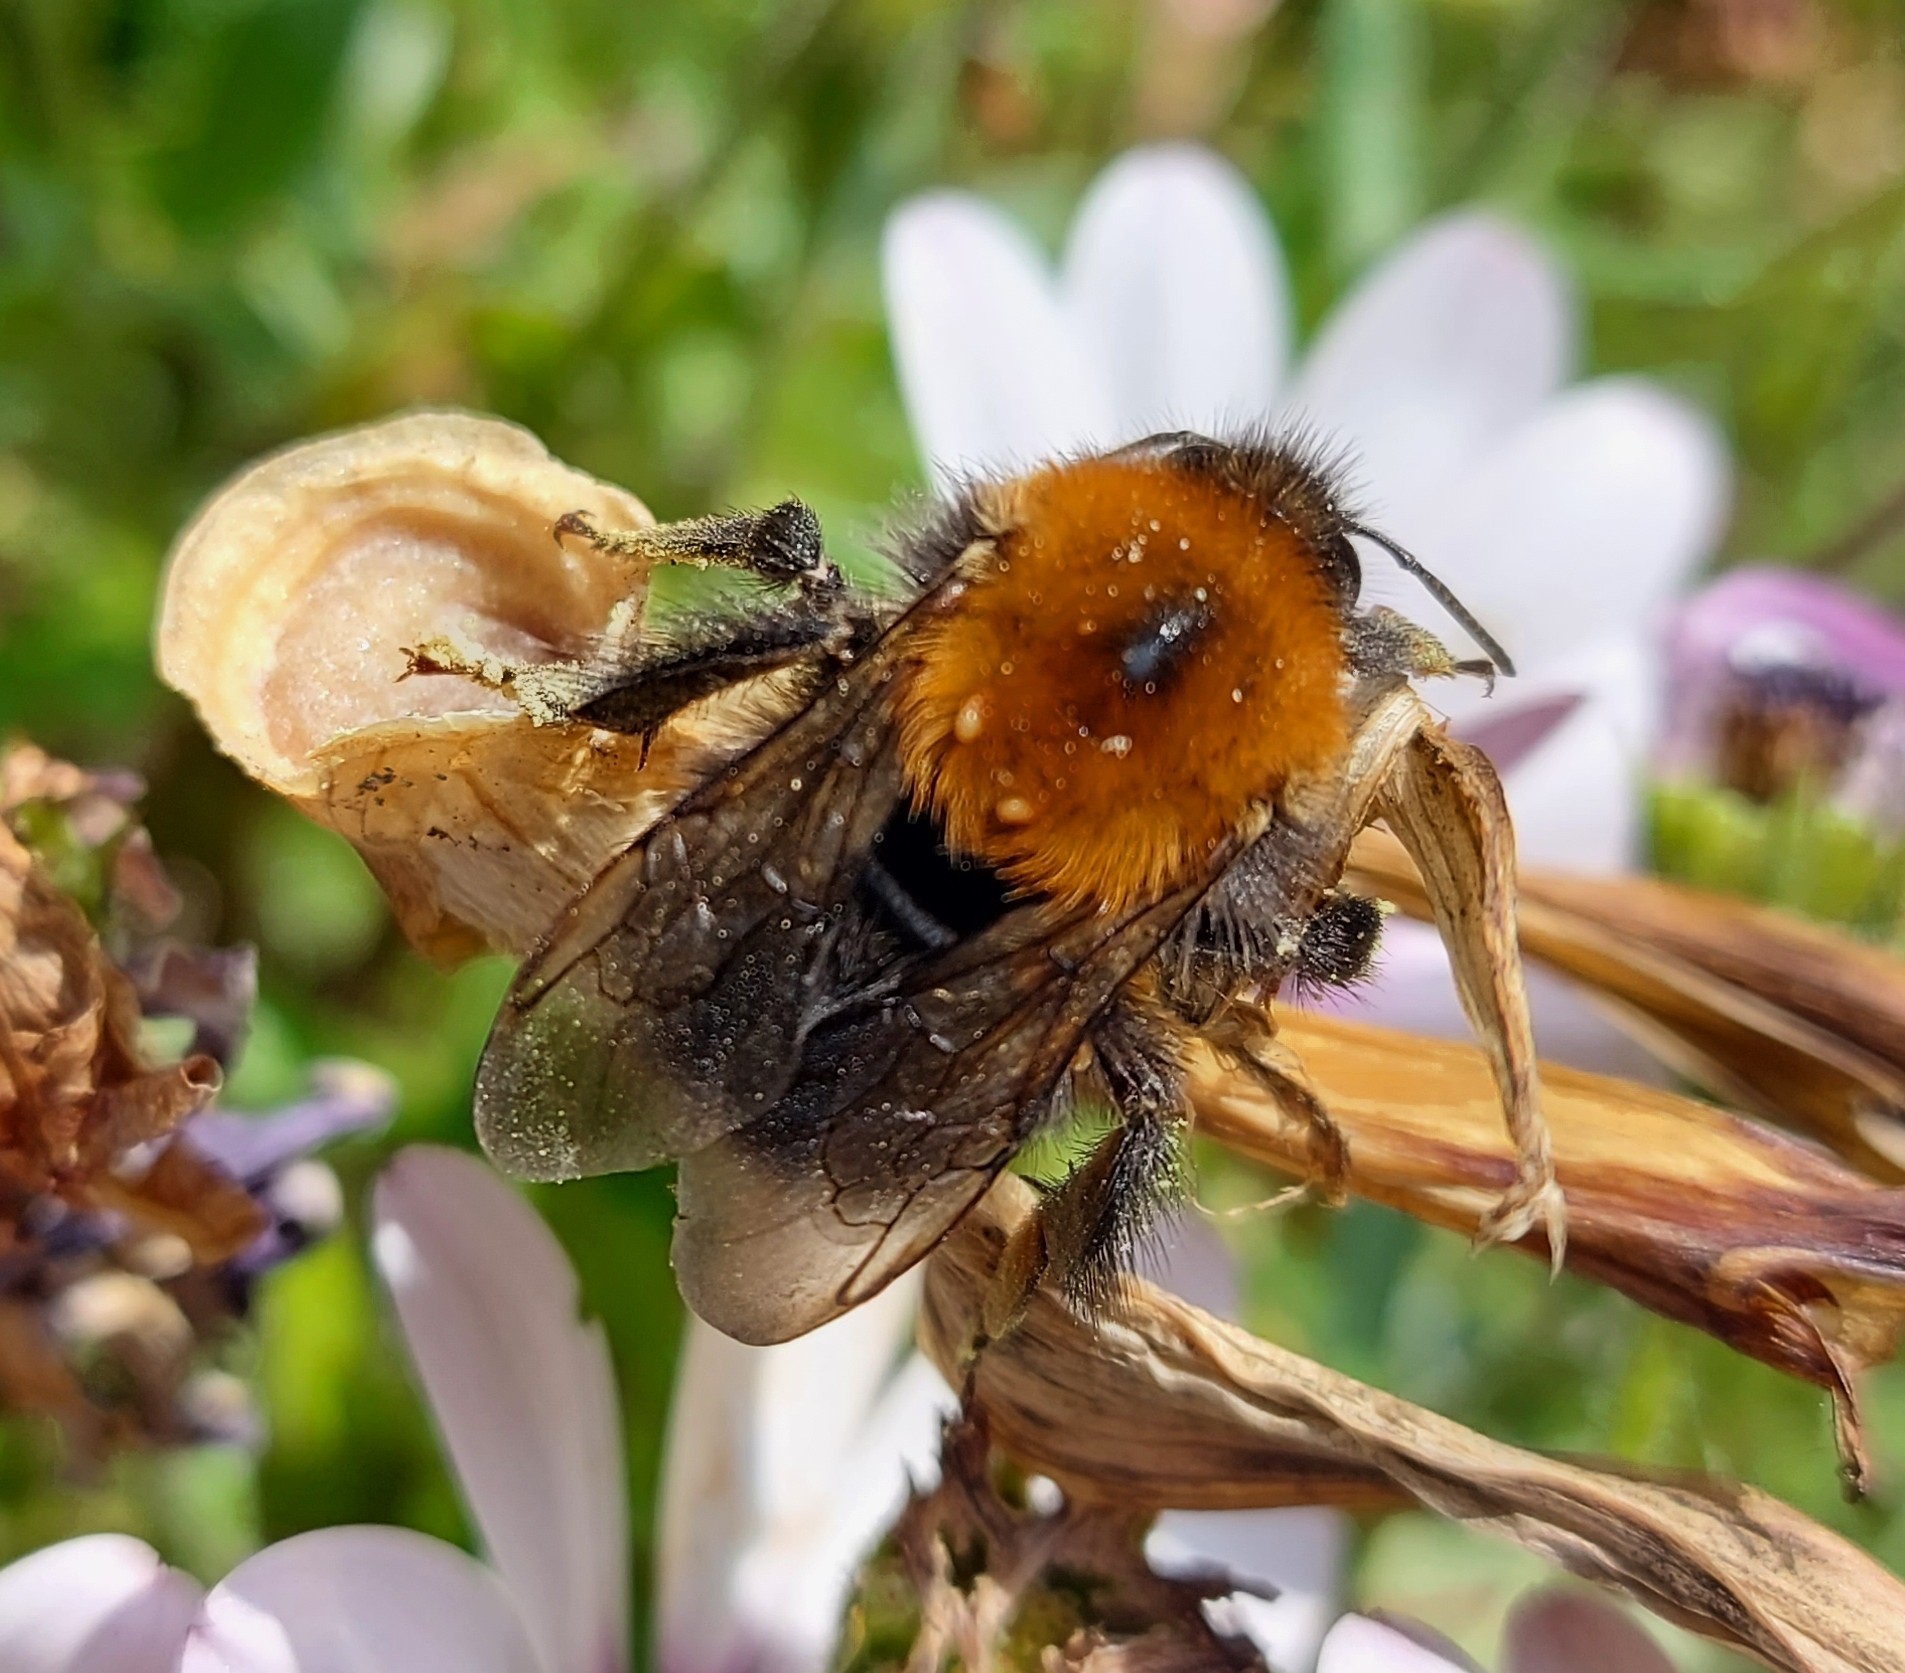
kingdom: Animalia
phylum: Arthropoda
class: Insecta
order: Hymenoptera
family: Apidae
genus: Bombus
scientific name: Bombus hypnorum
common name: New garden bumblebee
